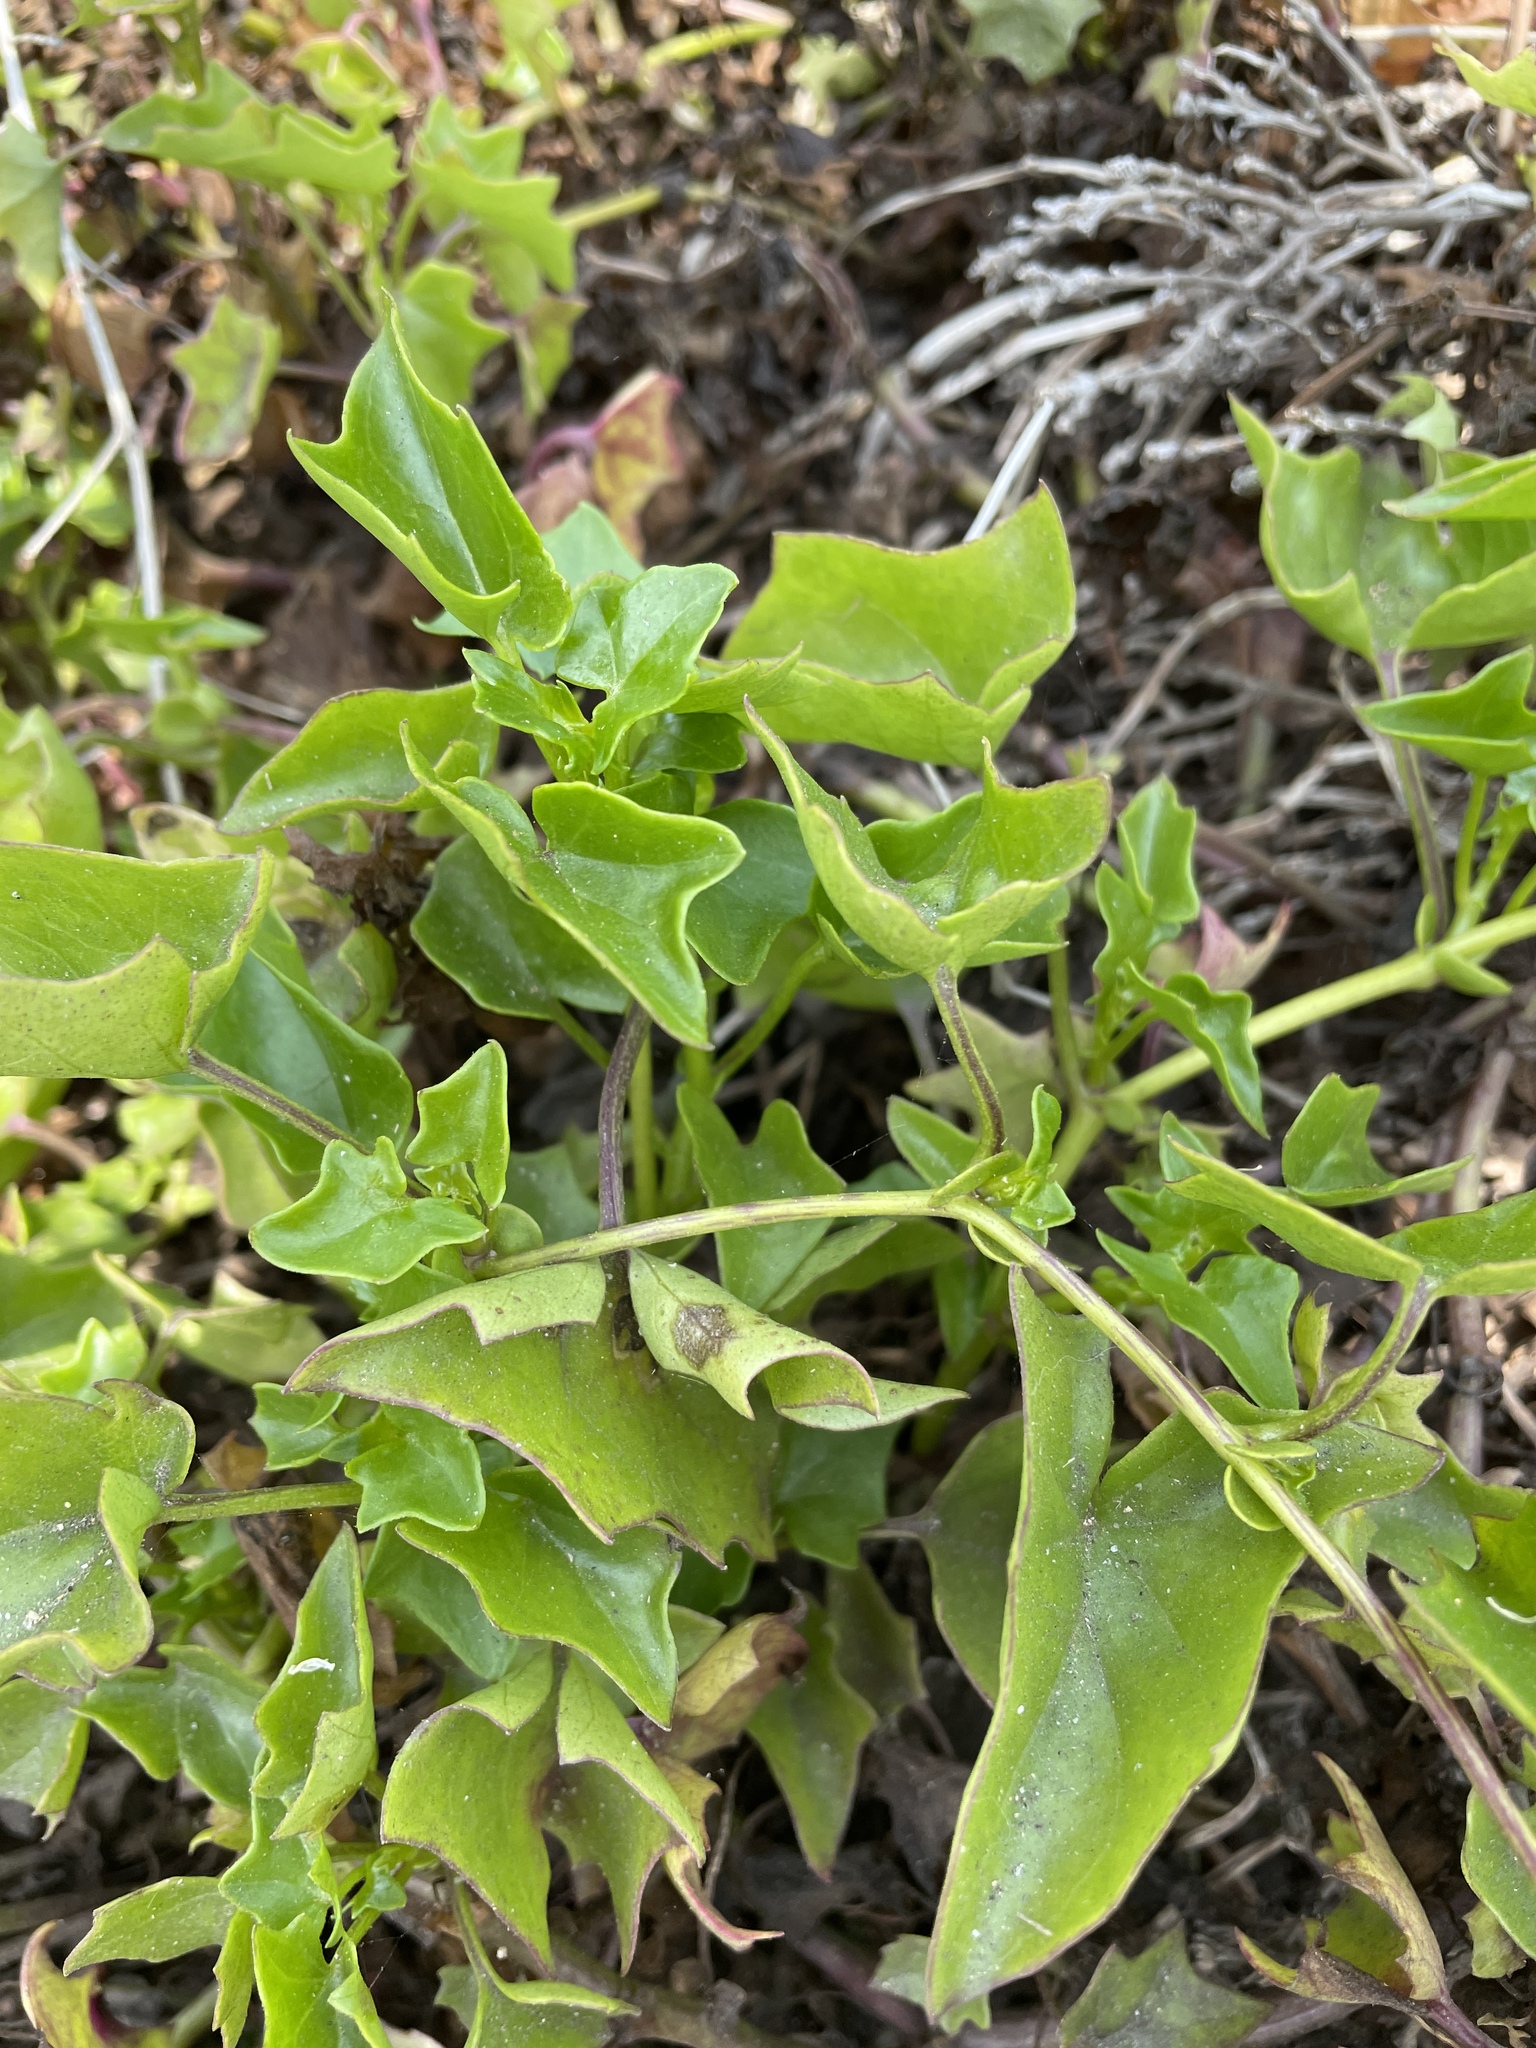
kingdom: Plantae
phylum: Tracheophyta
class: Magnoliopsida
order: Asterales
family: Asteraceae
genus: Delairea
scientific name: Delairea odorata
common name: Cape-ivy
